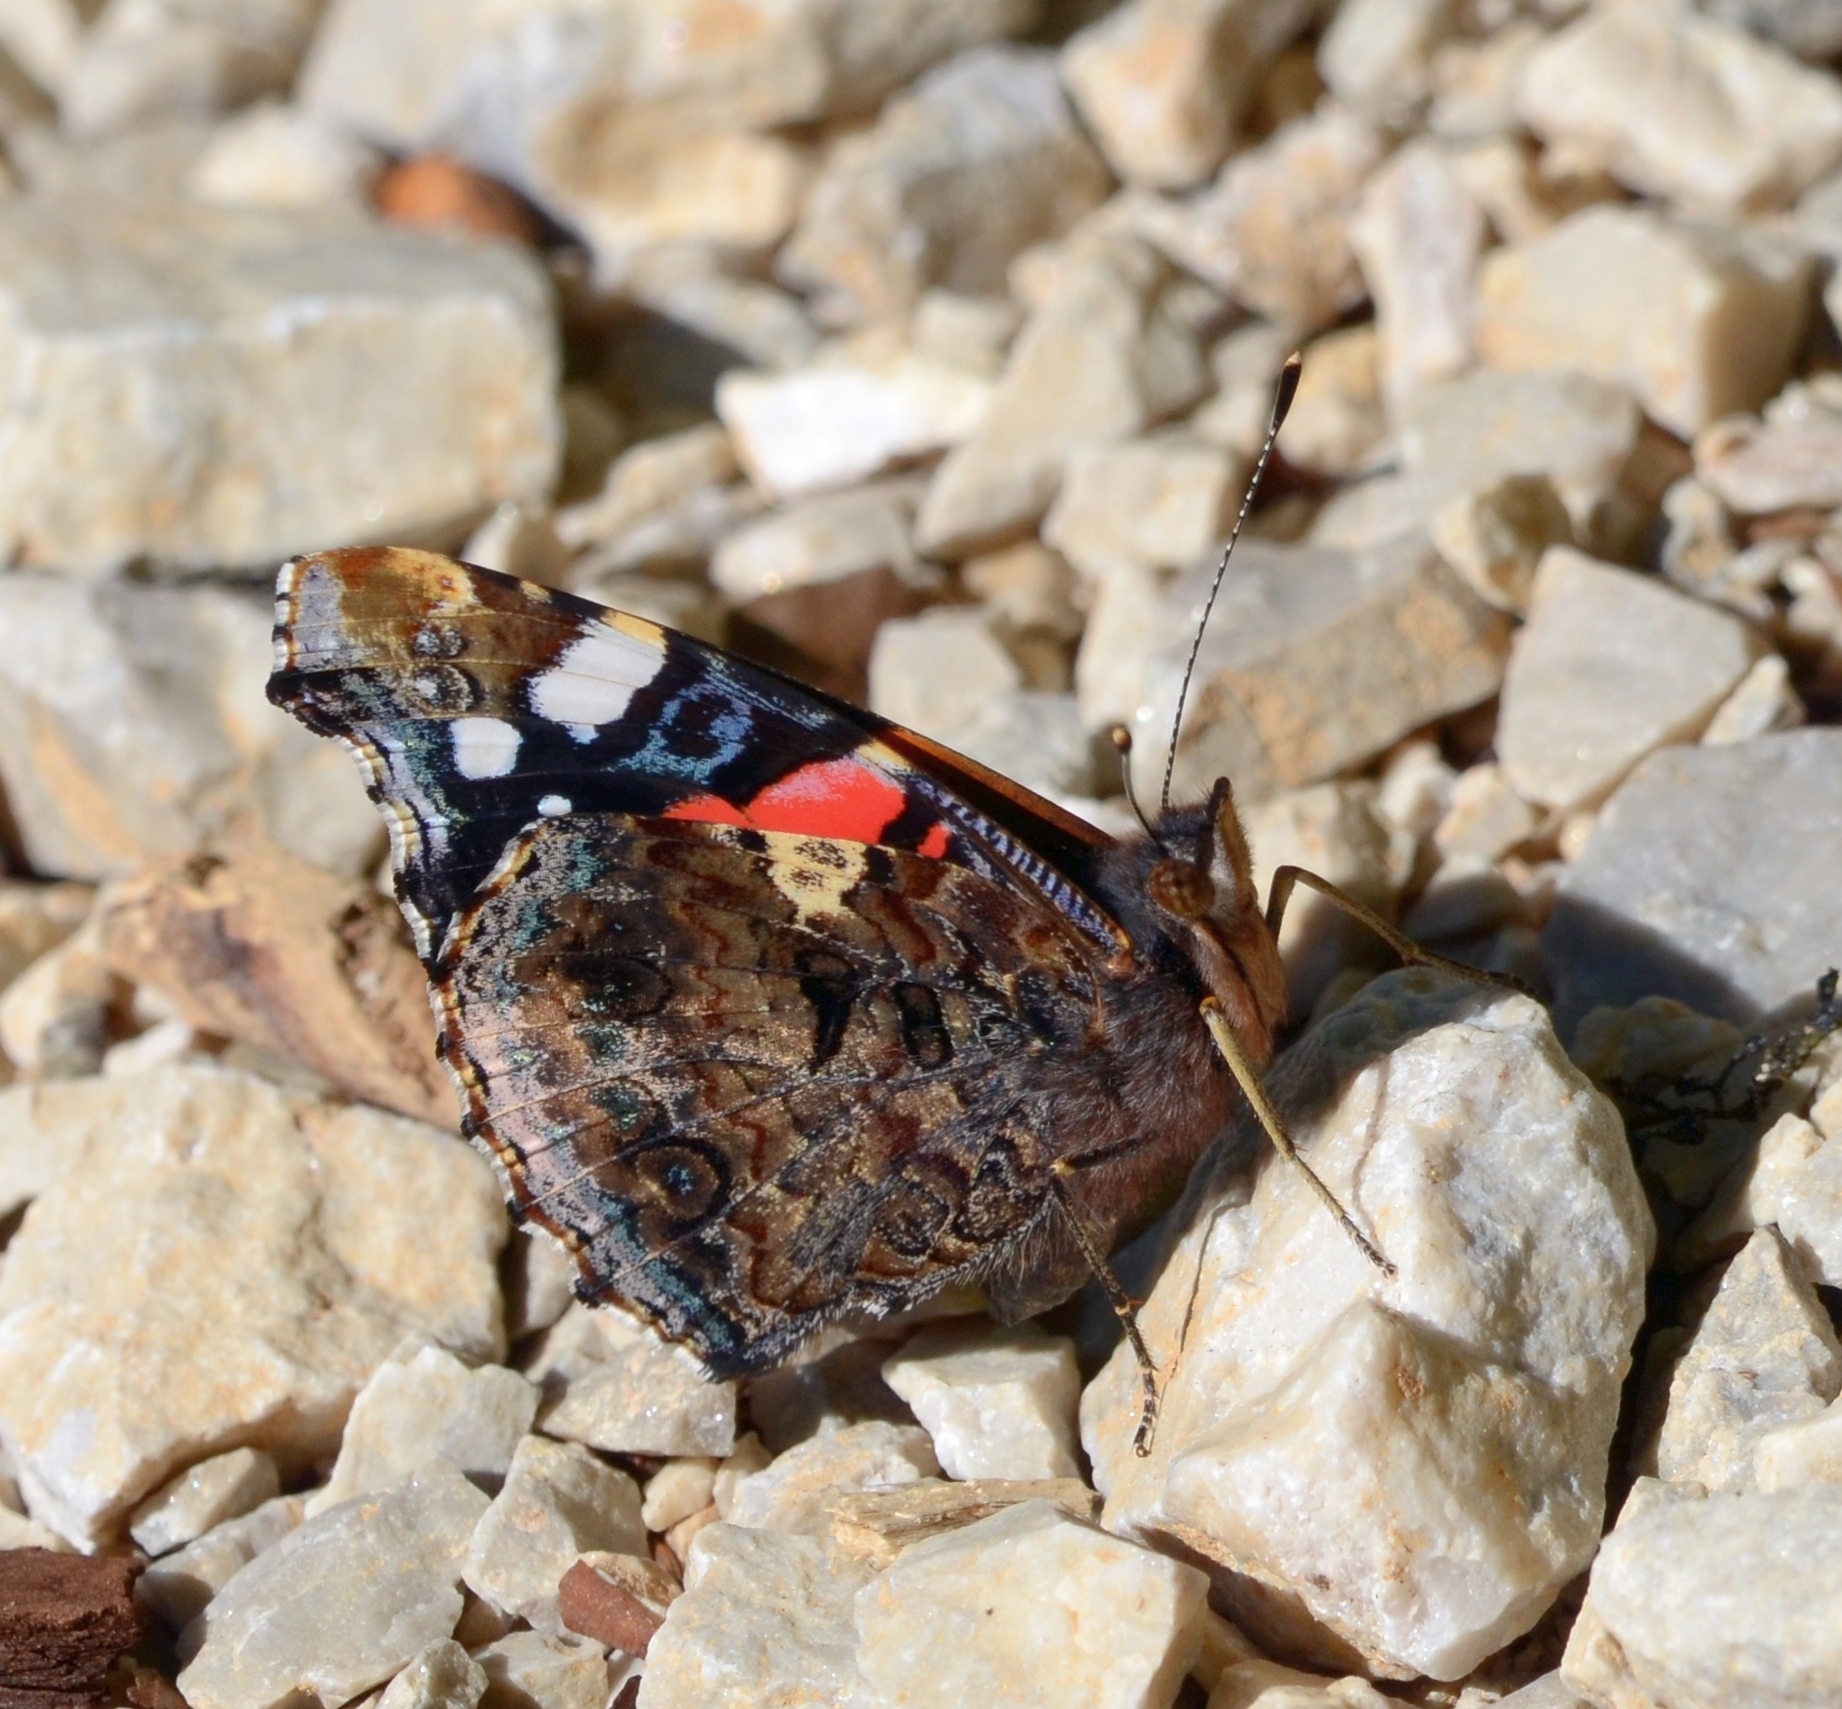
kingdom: Animalia
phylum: Arthropoda
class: Insecta
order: Lepidoptera
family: Nymphalidae
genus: Vanessa
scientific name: Vanessa atalanta
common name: Red admiral
